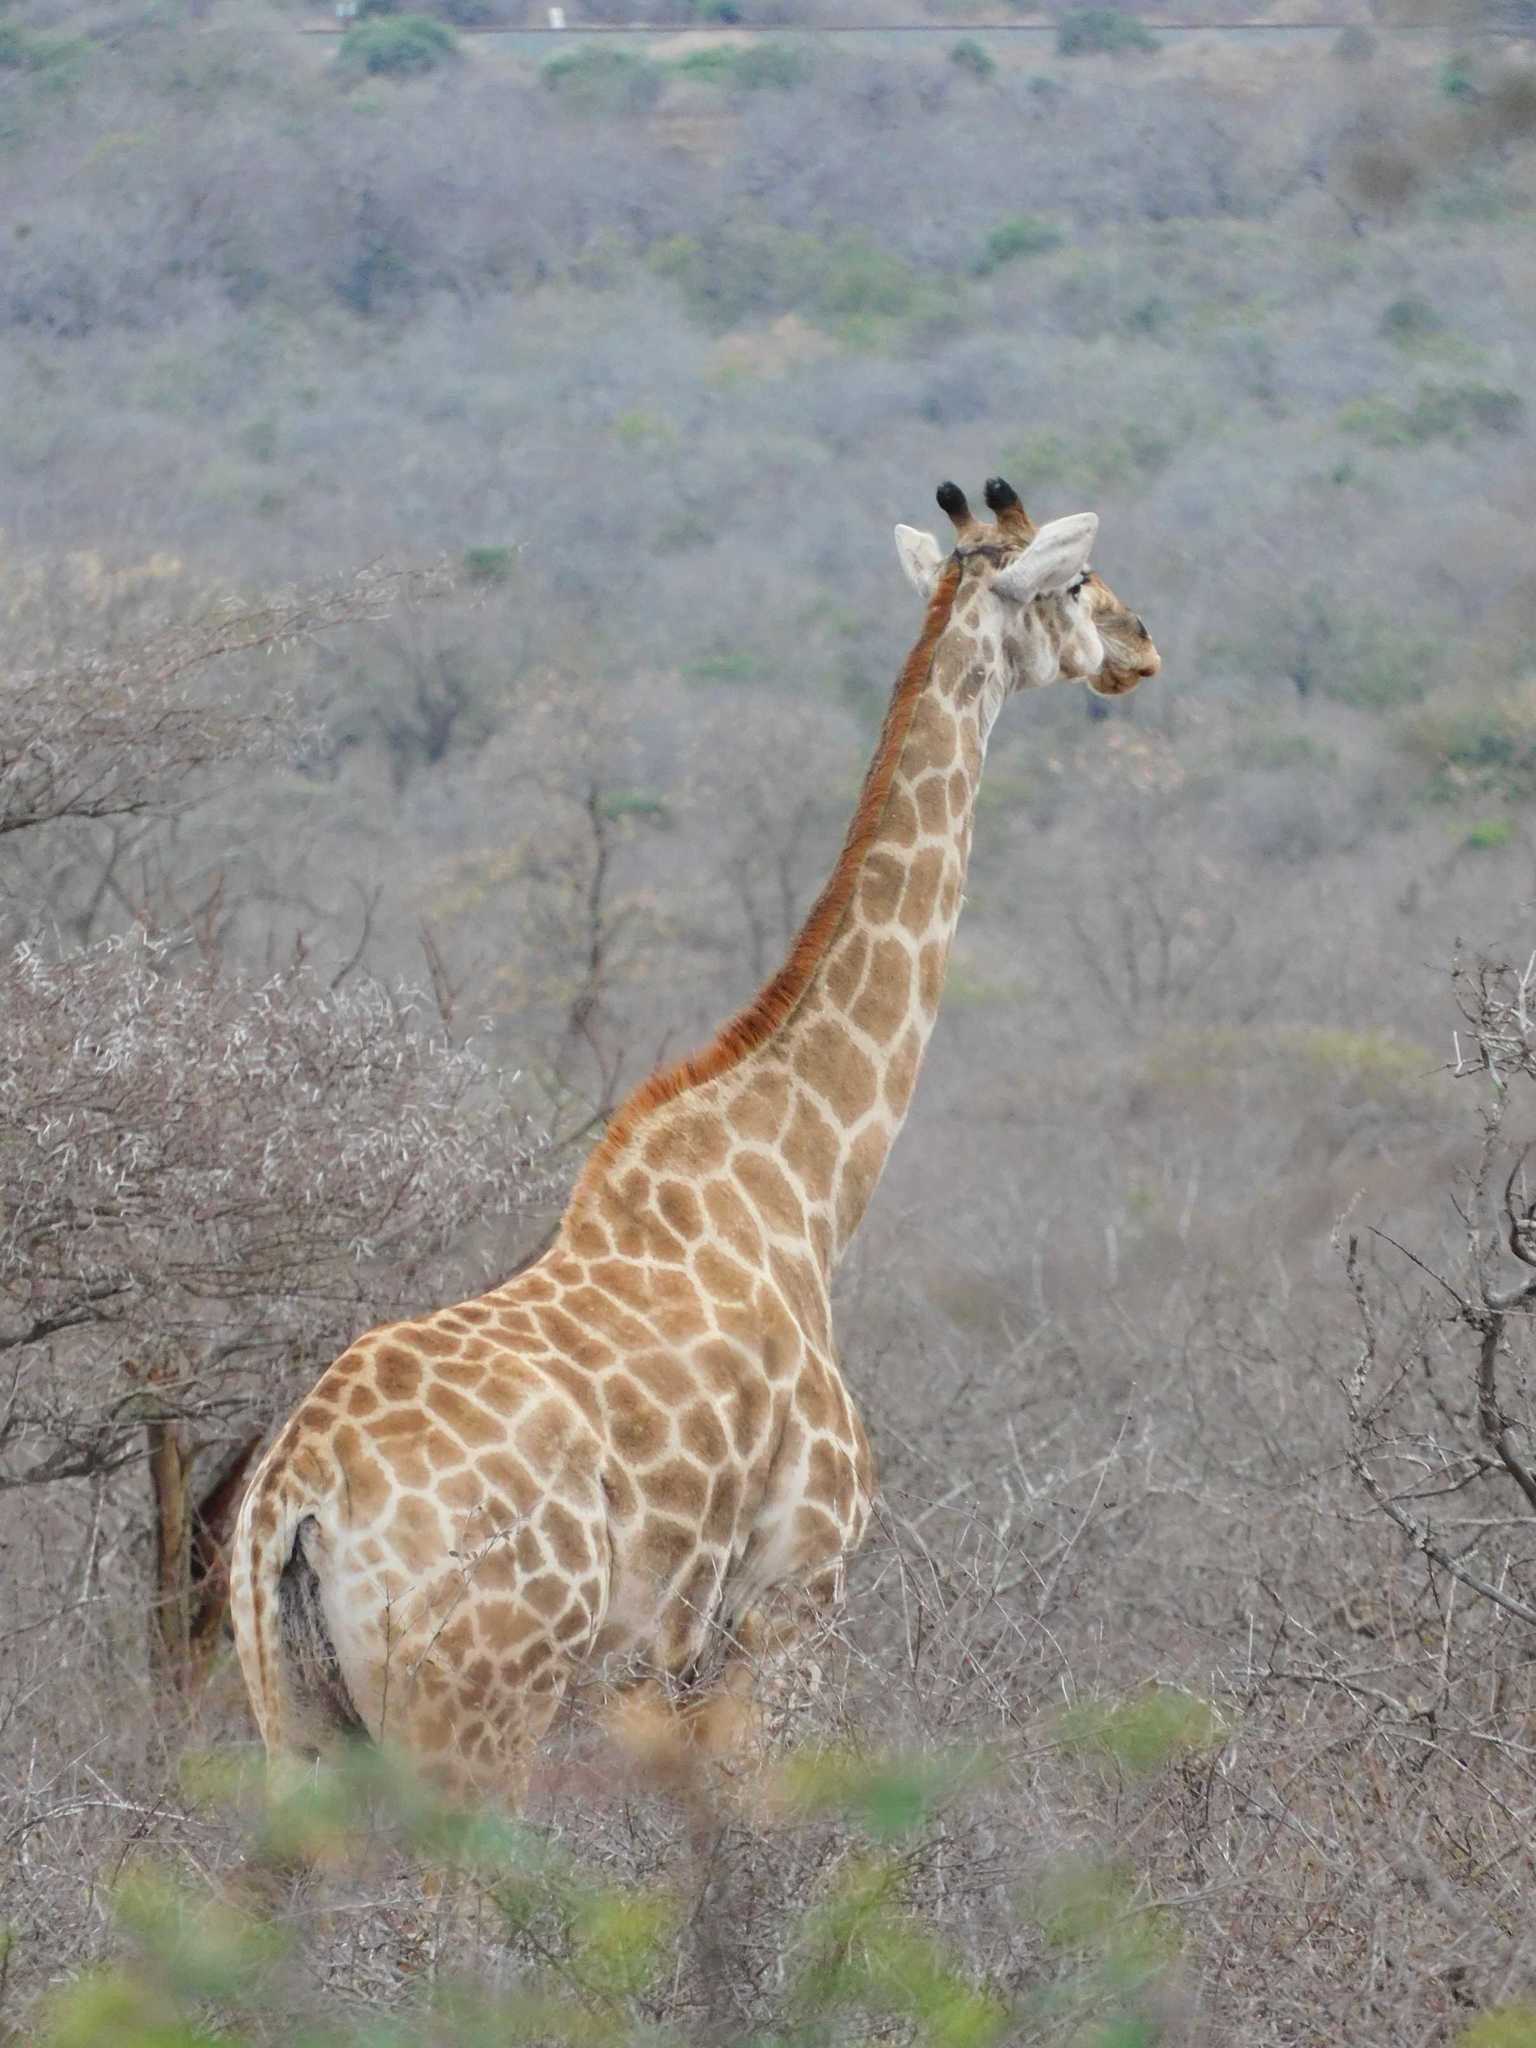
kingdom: Animalia
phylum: Chordata
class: Mammalia
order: Artiodactyla
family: Giraffidae
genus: Giraffa
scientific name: Giraffa giraffa
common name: Southern giraffe
